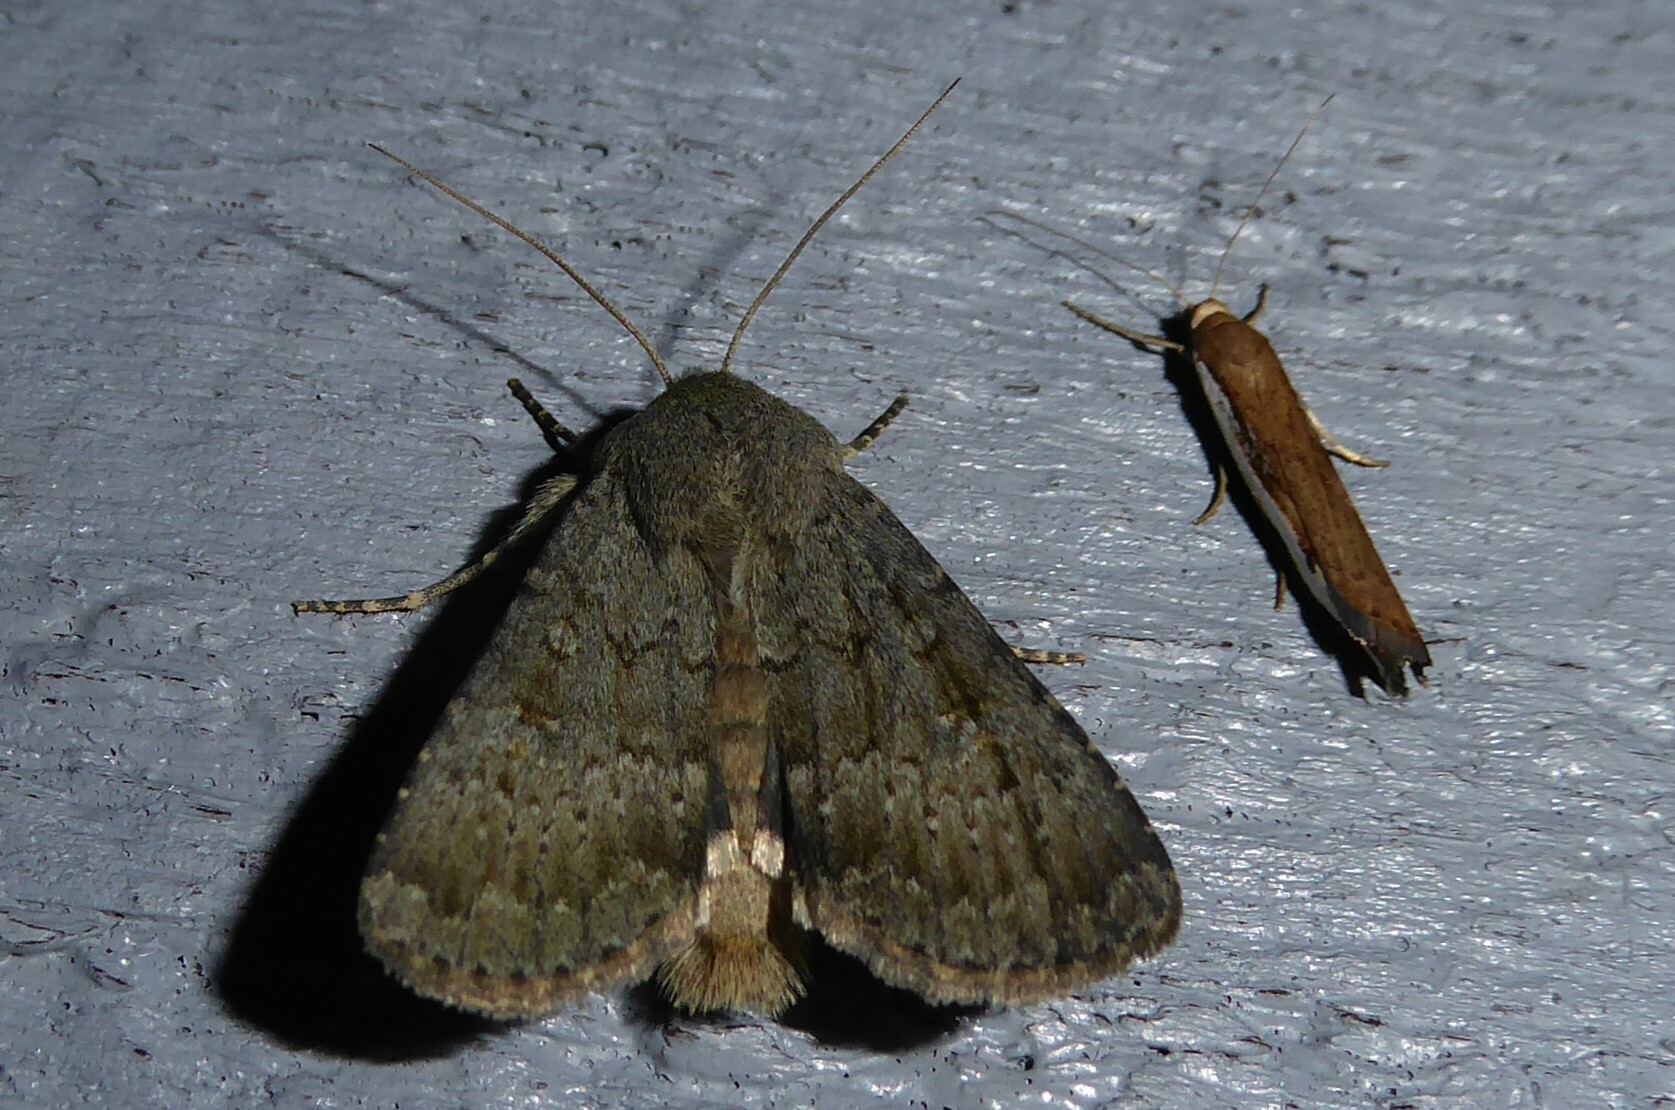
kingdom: Animalia
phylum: Arthropoda
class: Insecta
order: Lepidoptera
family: Noctuidae
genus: Ichneutica
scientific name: Ichneutica moderata
